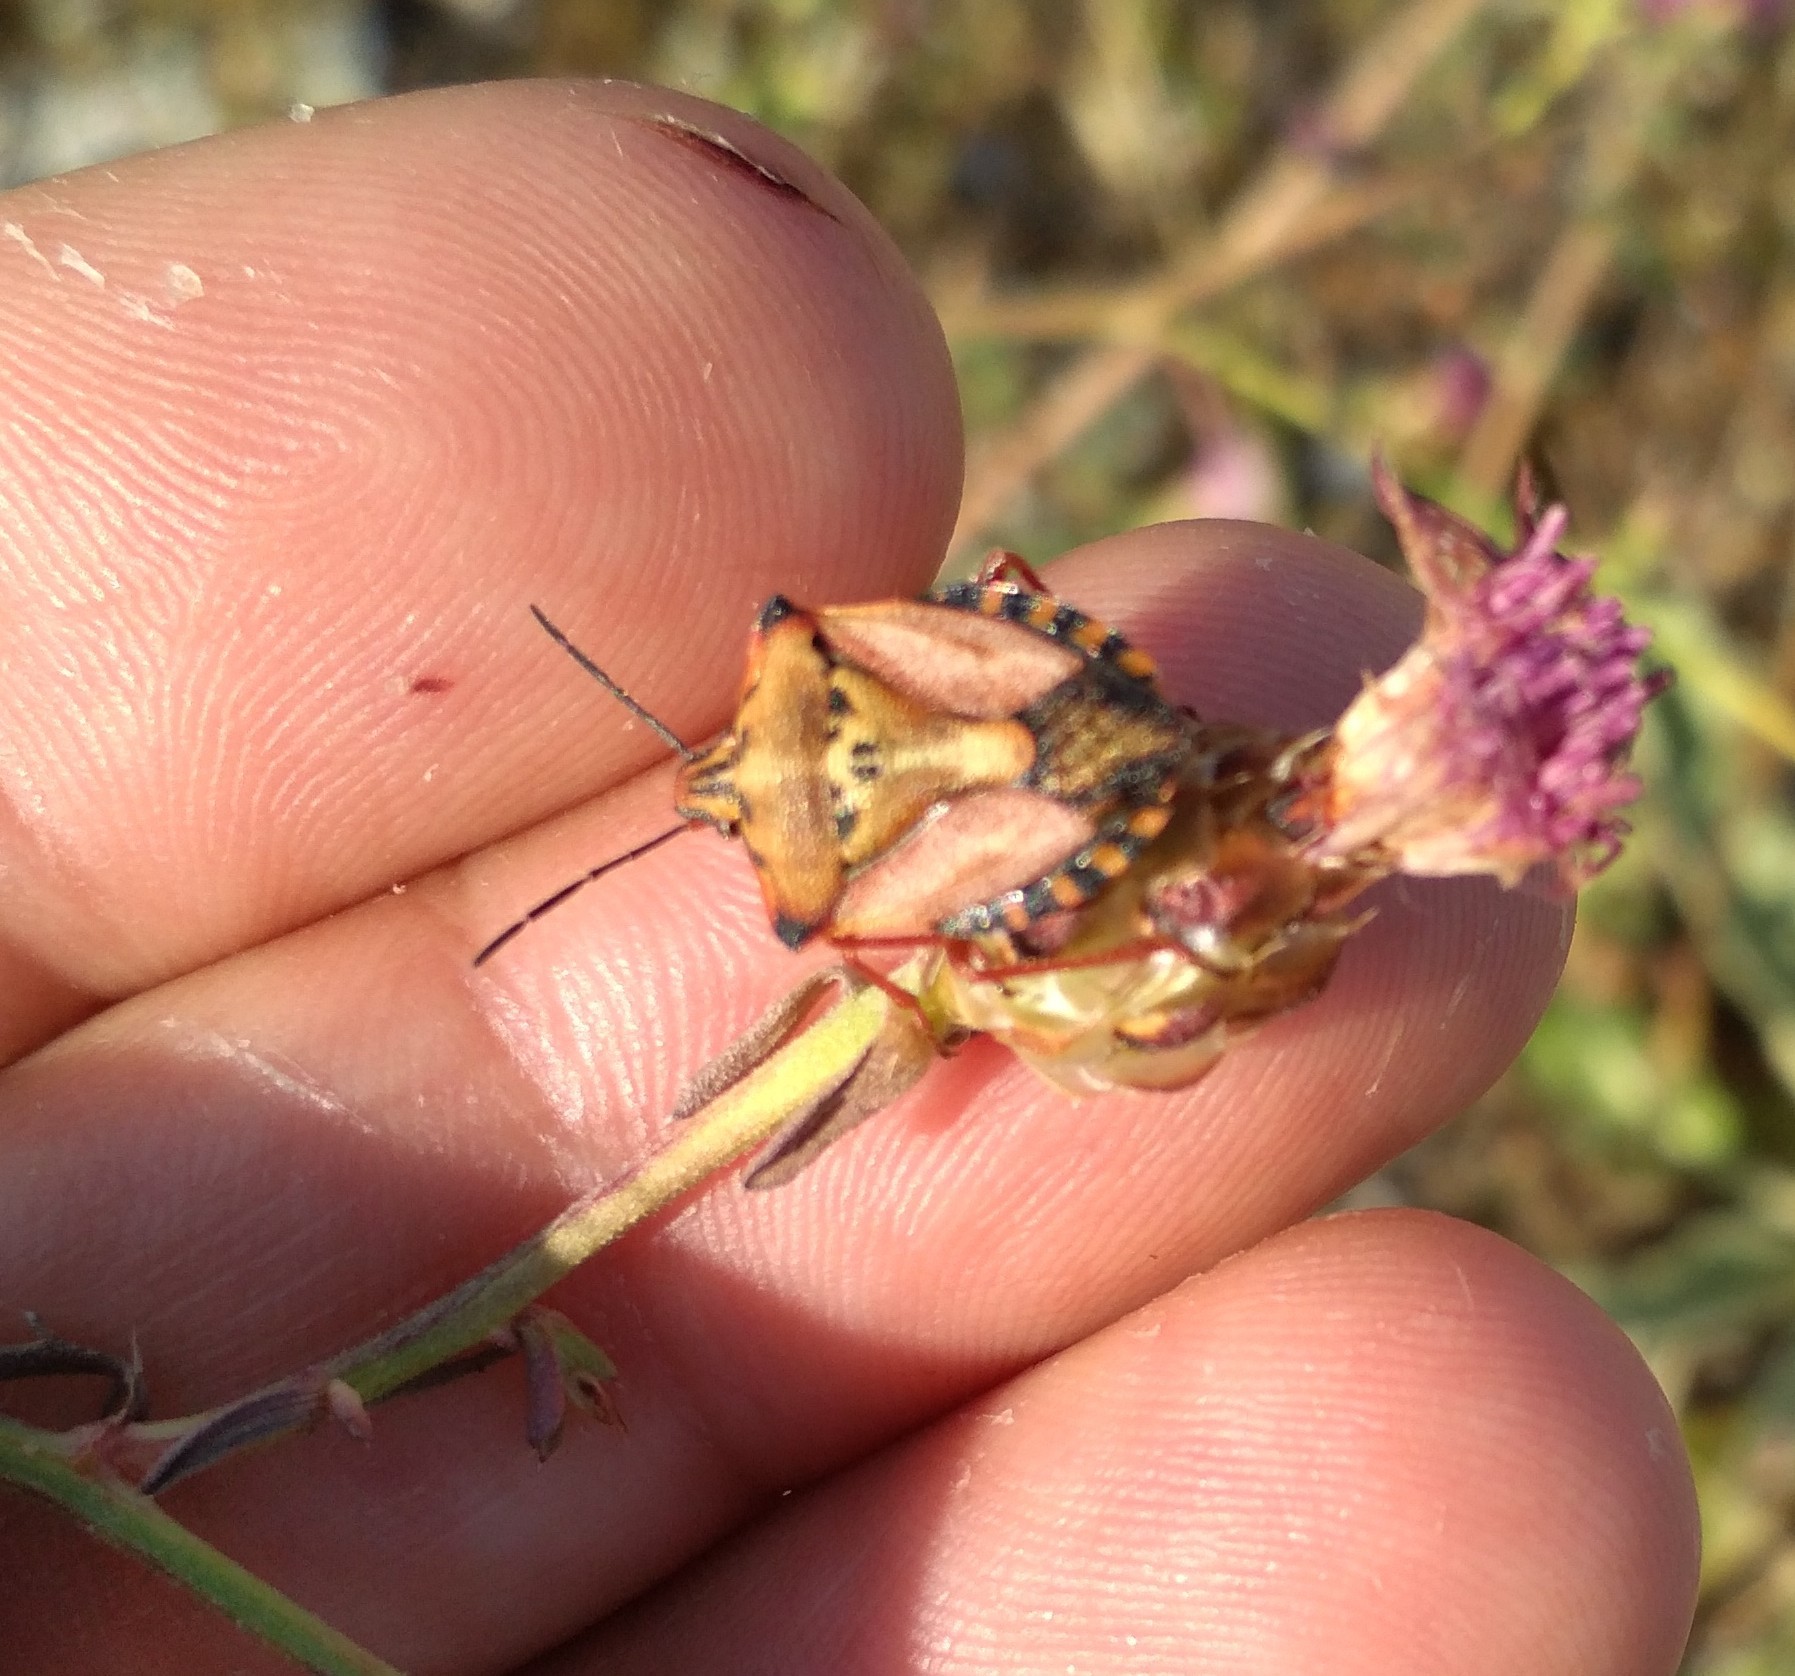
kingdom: Animalia
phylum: Arthropoda
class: Insecta
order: Hemiptera
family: Pentatomidae
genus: Carpocoris
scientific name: Carpocoris mediterraneus
